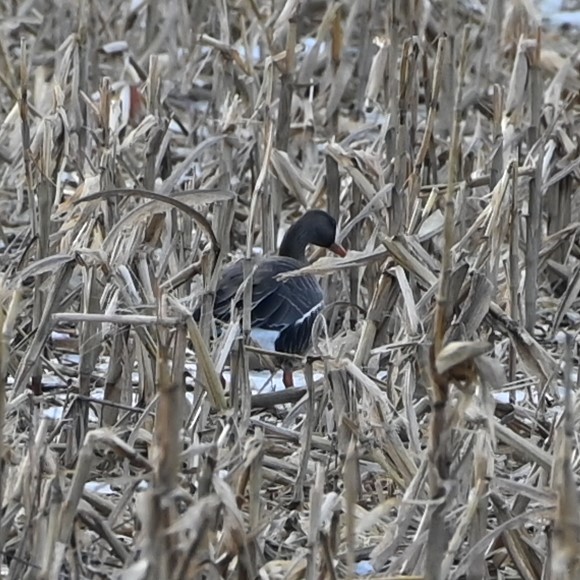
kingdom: Animalia
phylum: Chordata
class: Aves
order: Anseriformes
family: Anatidae
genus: Anser
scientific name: Anser albifrons
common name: Greater white-fronted goose
